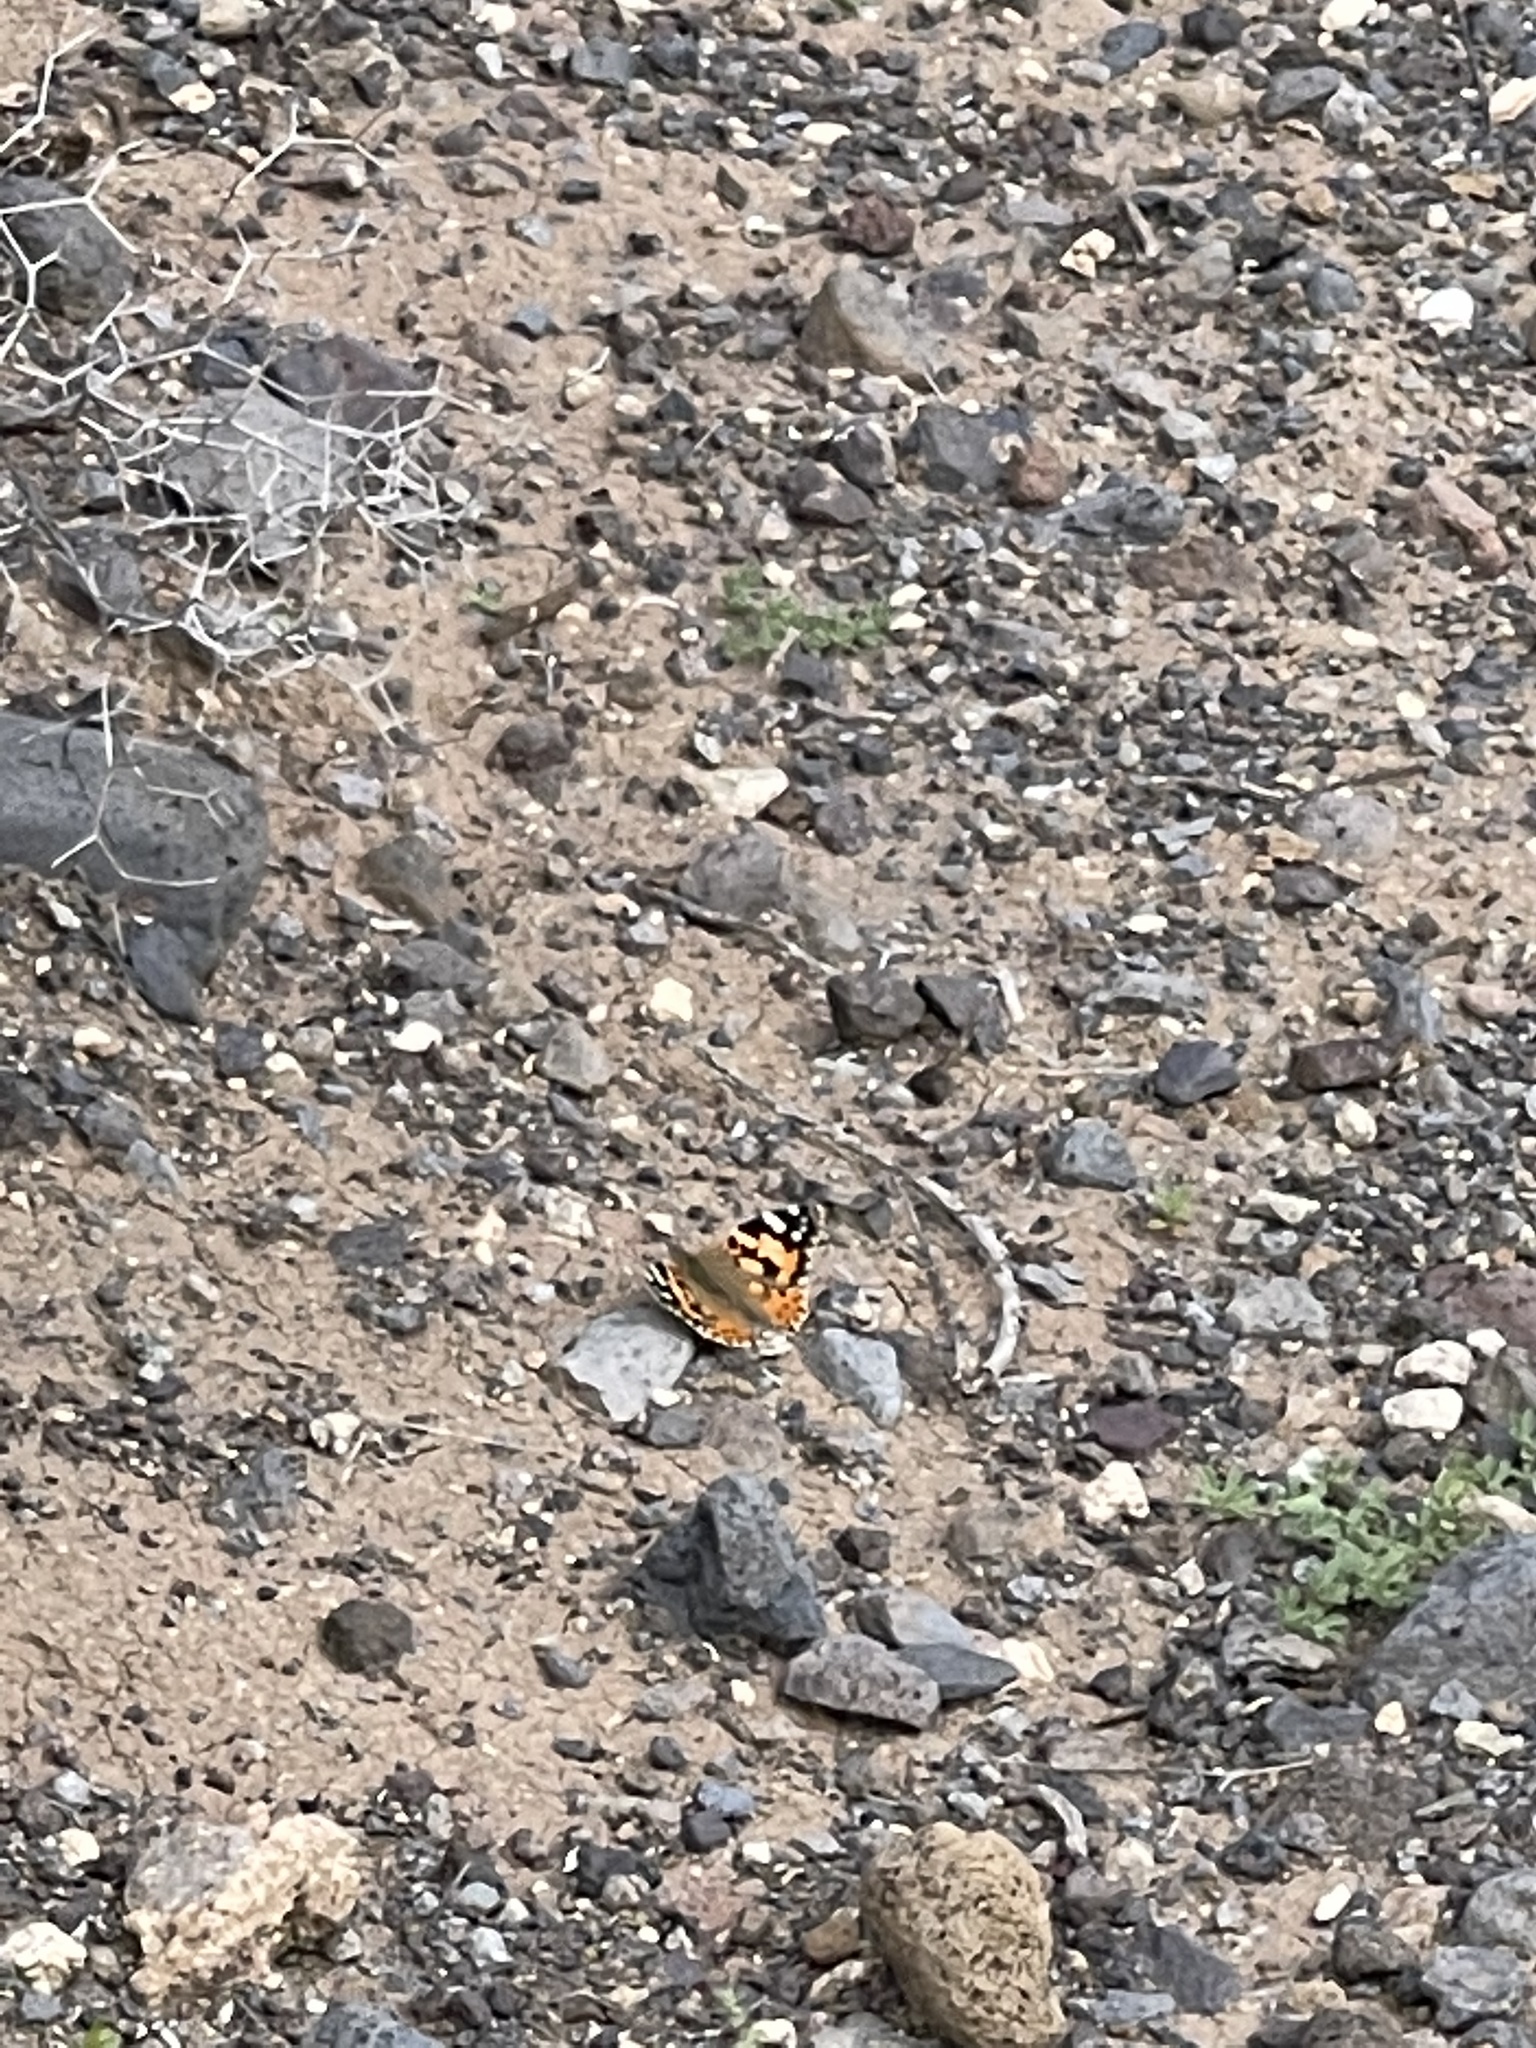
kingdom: Animalia
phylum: Arthropoda
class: Insecta
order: Lepidoptera
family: Nymphalidae
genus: Vanessa
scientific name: Vanessa cardui
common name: Painted lady
